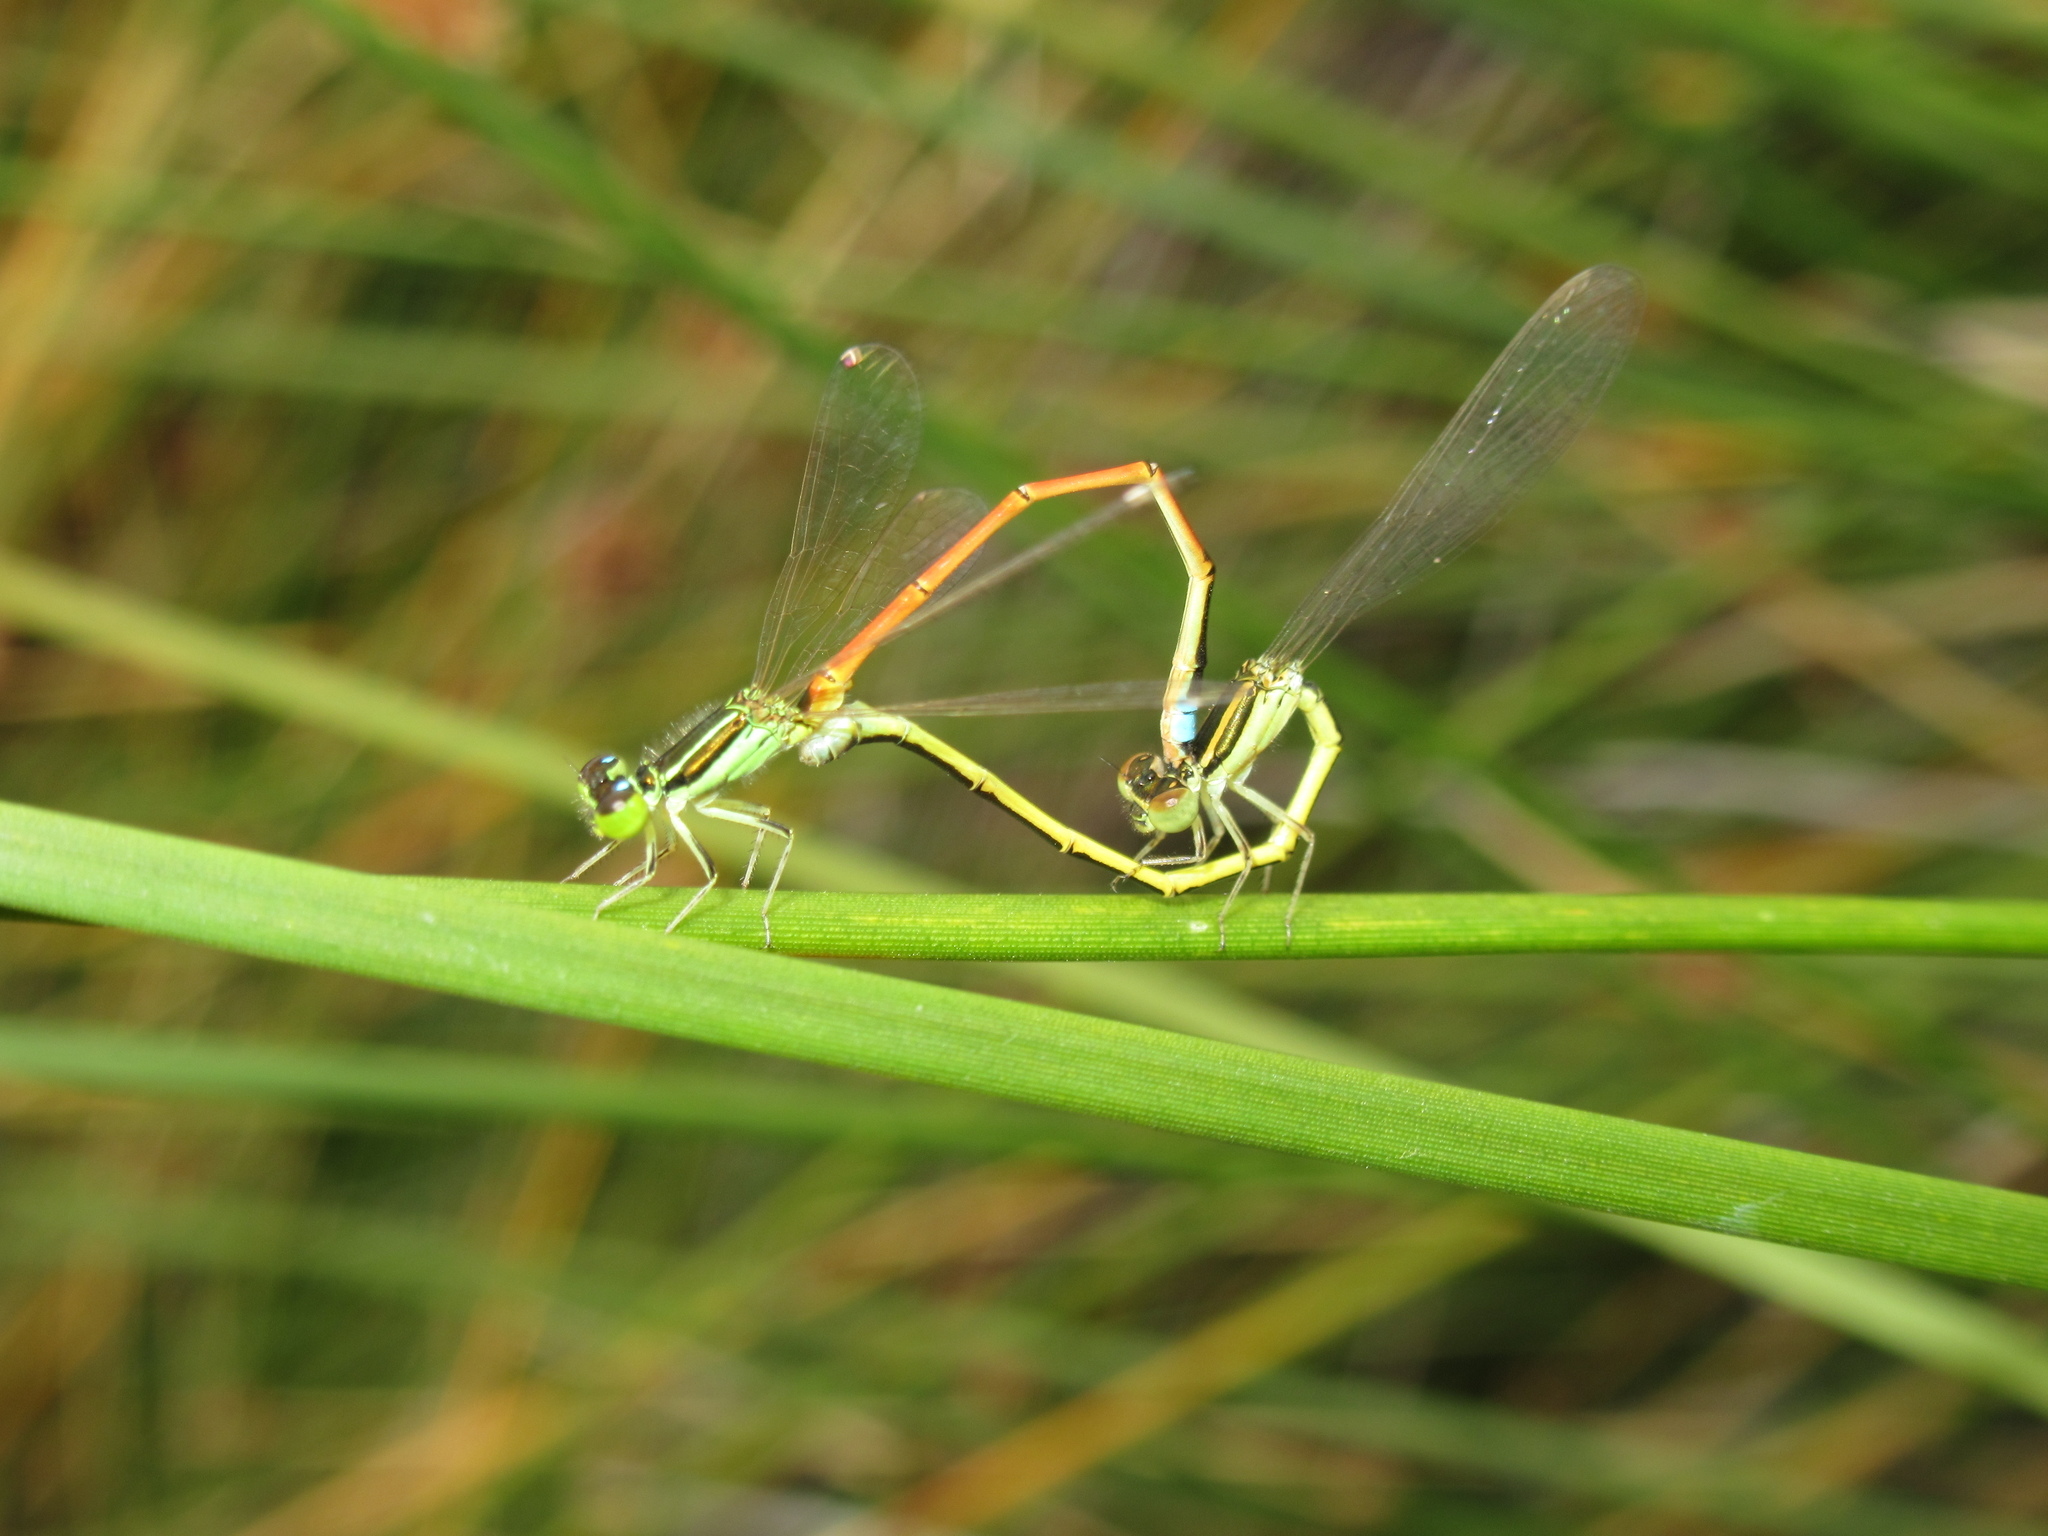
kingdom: Animalia
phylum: Arthropoda
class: Insecta
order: Odonata
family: Coenagrionidae
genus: Ischnura
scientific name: Ischnura aurora
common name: Gossamer damselfly
